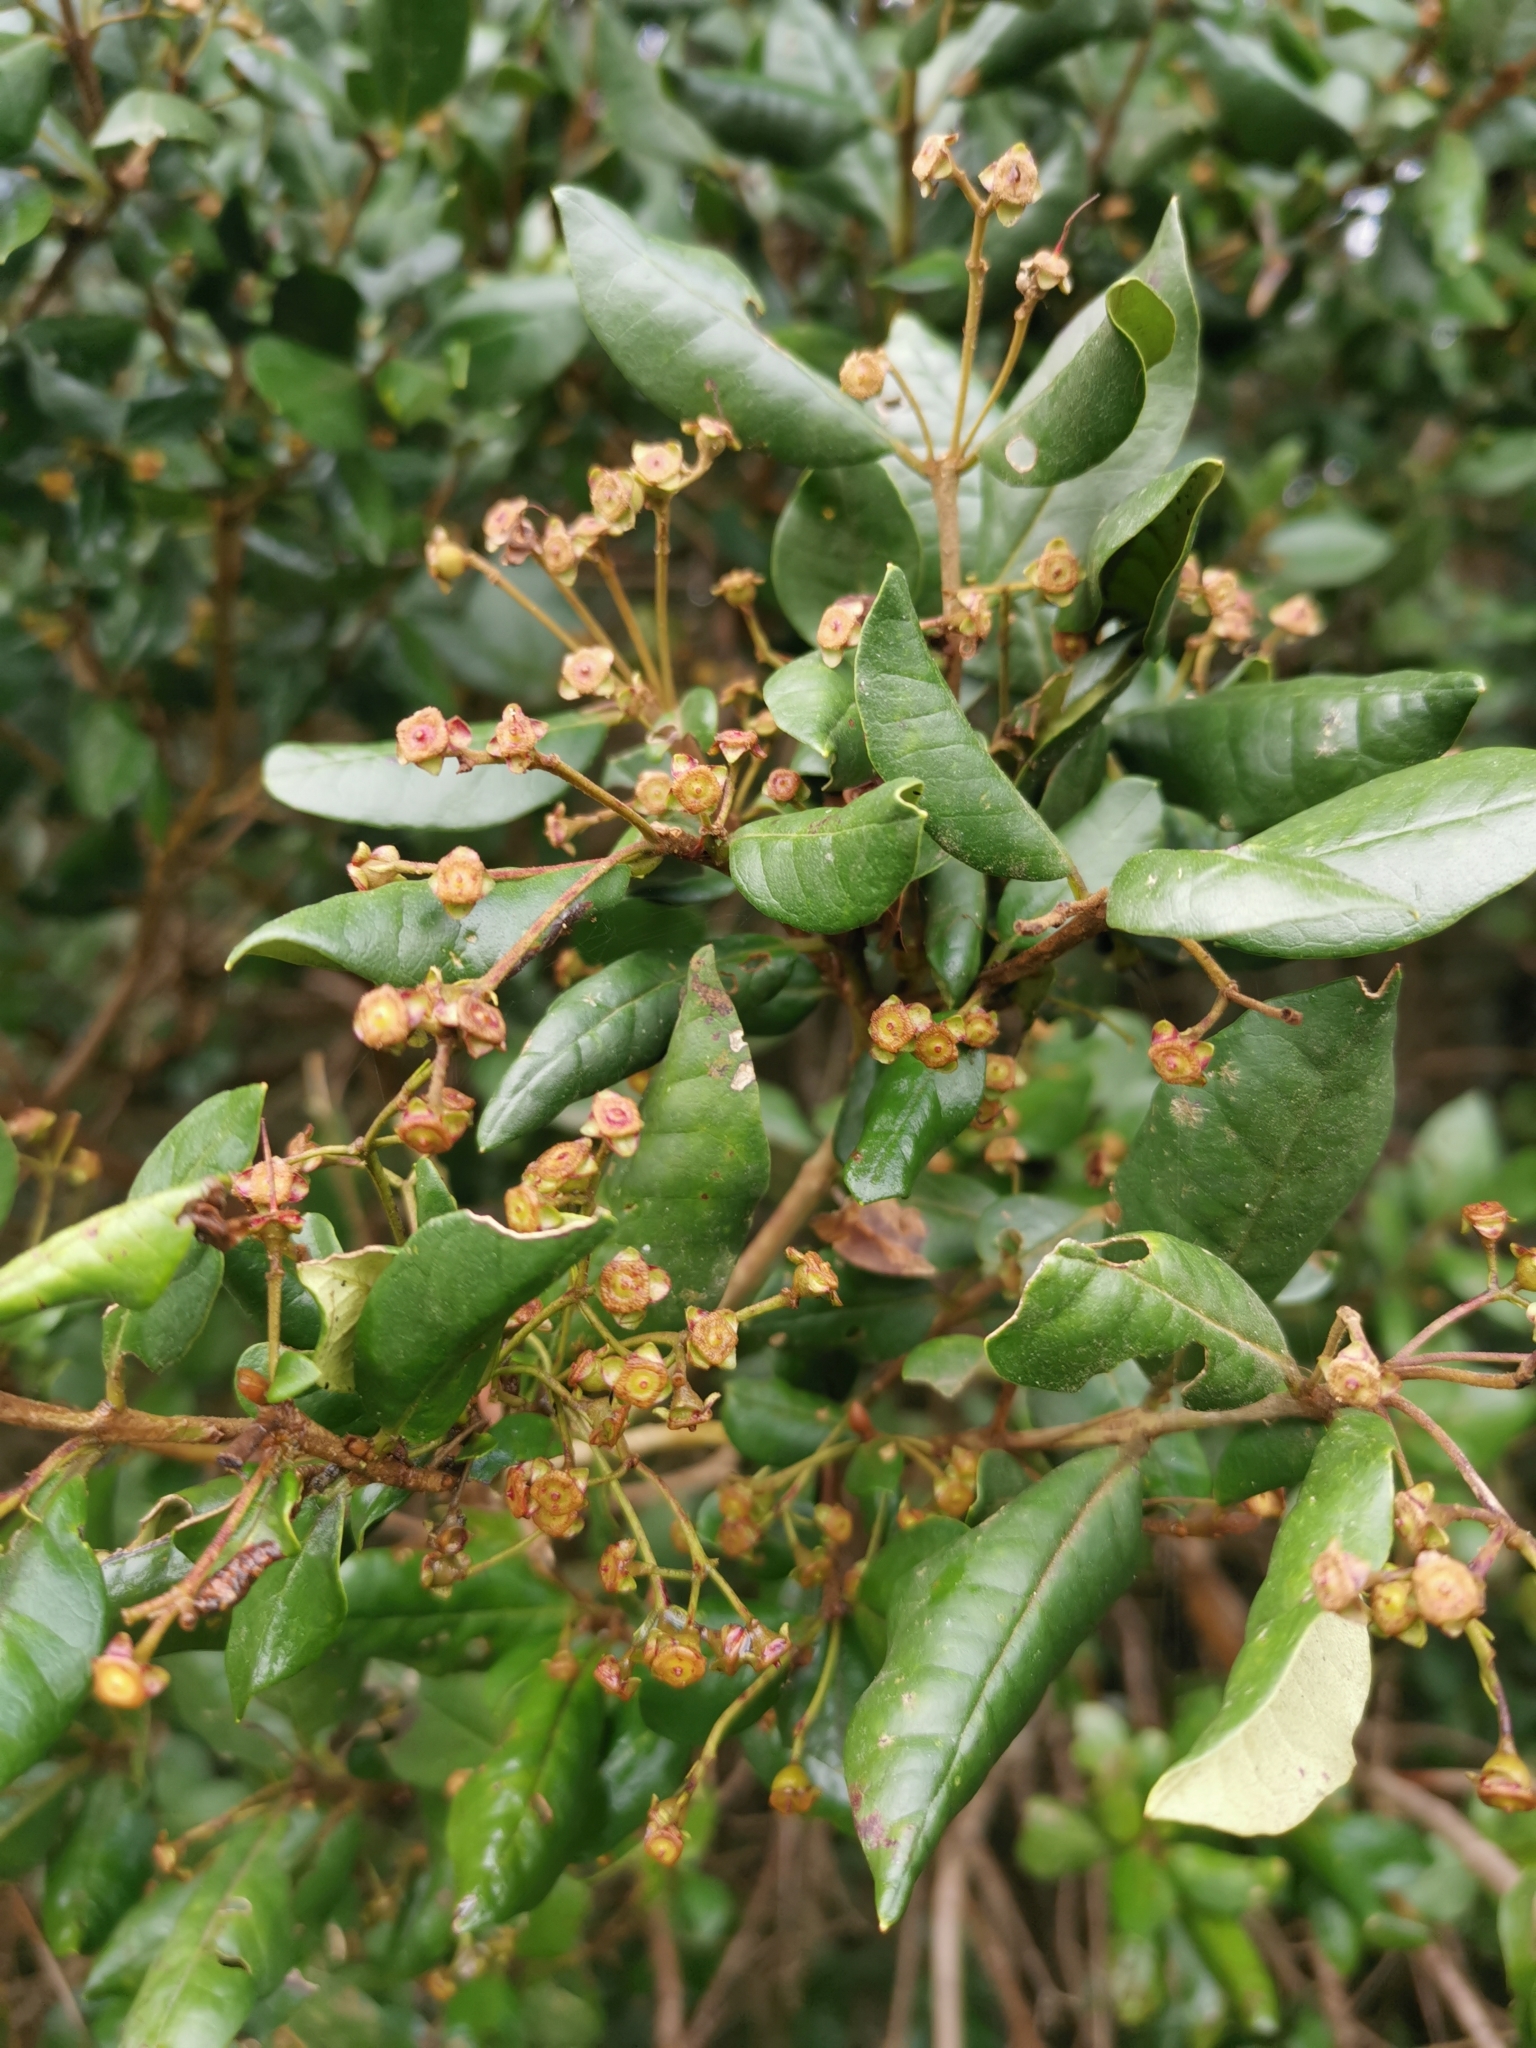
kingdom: Plantae
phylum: Tracheophyta
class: Magnoliopsida
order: Myrtales
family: Myrtaceae
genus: Myrceugenia
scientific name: Myrceugenia exsucca
